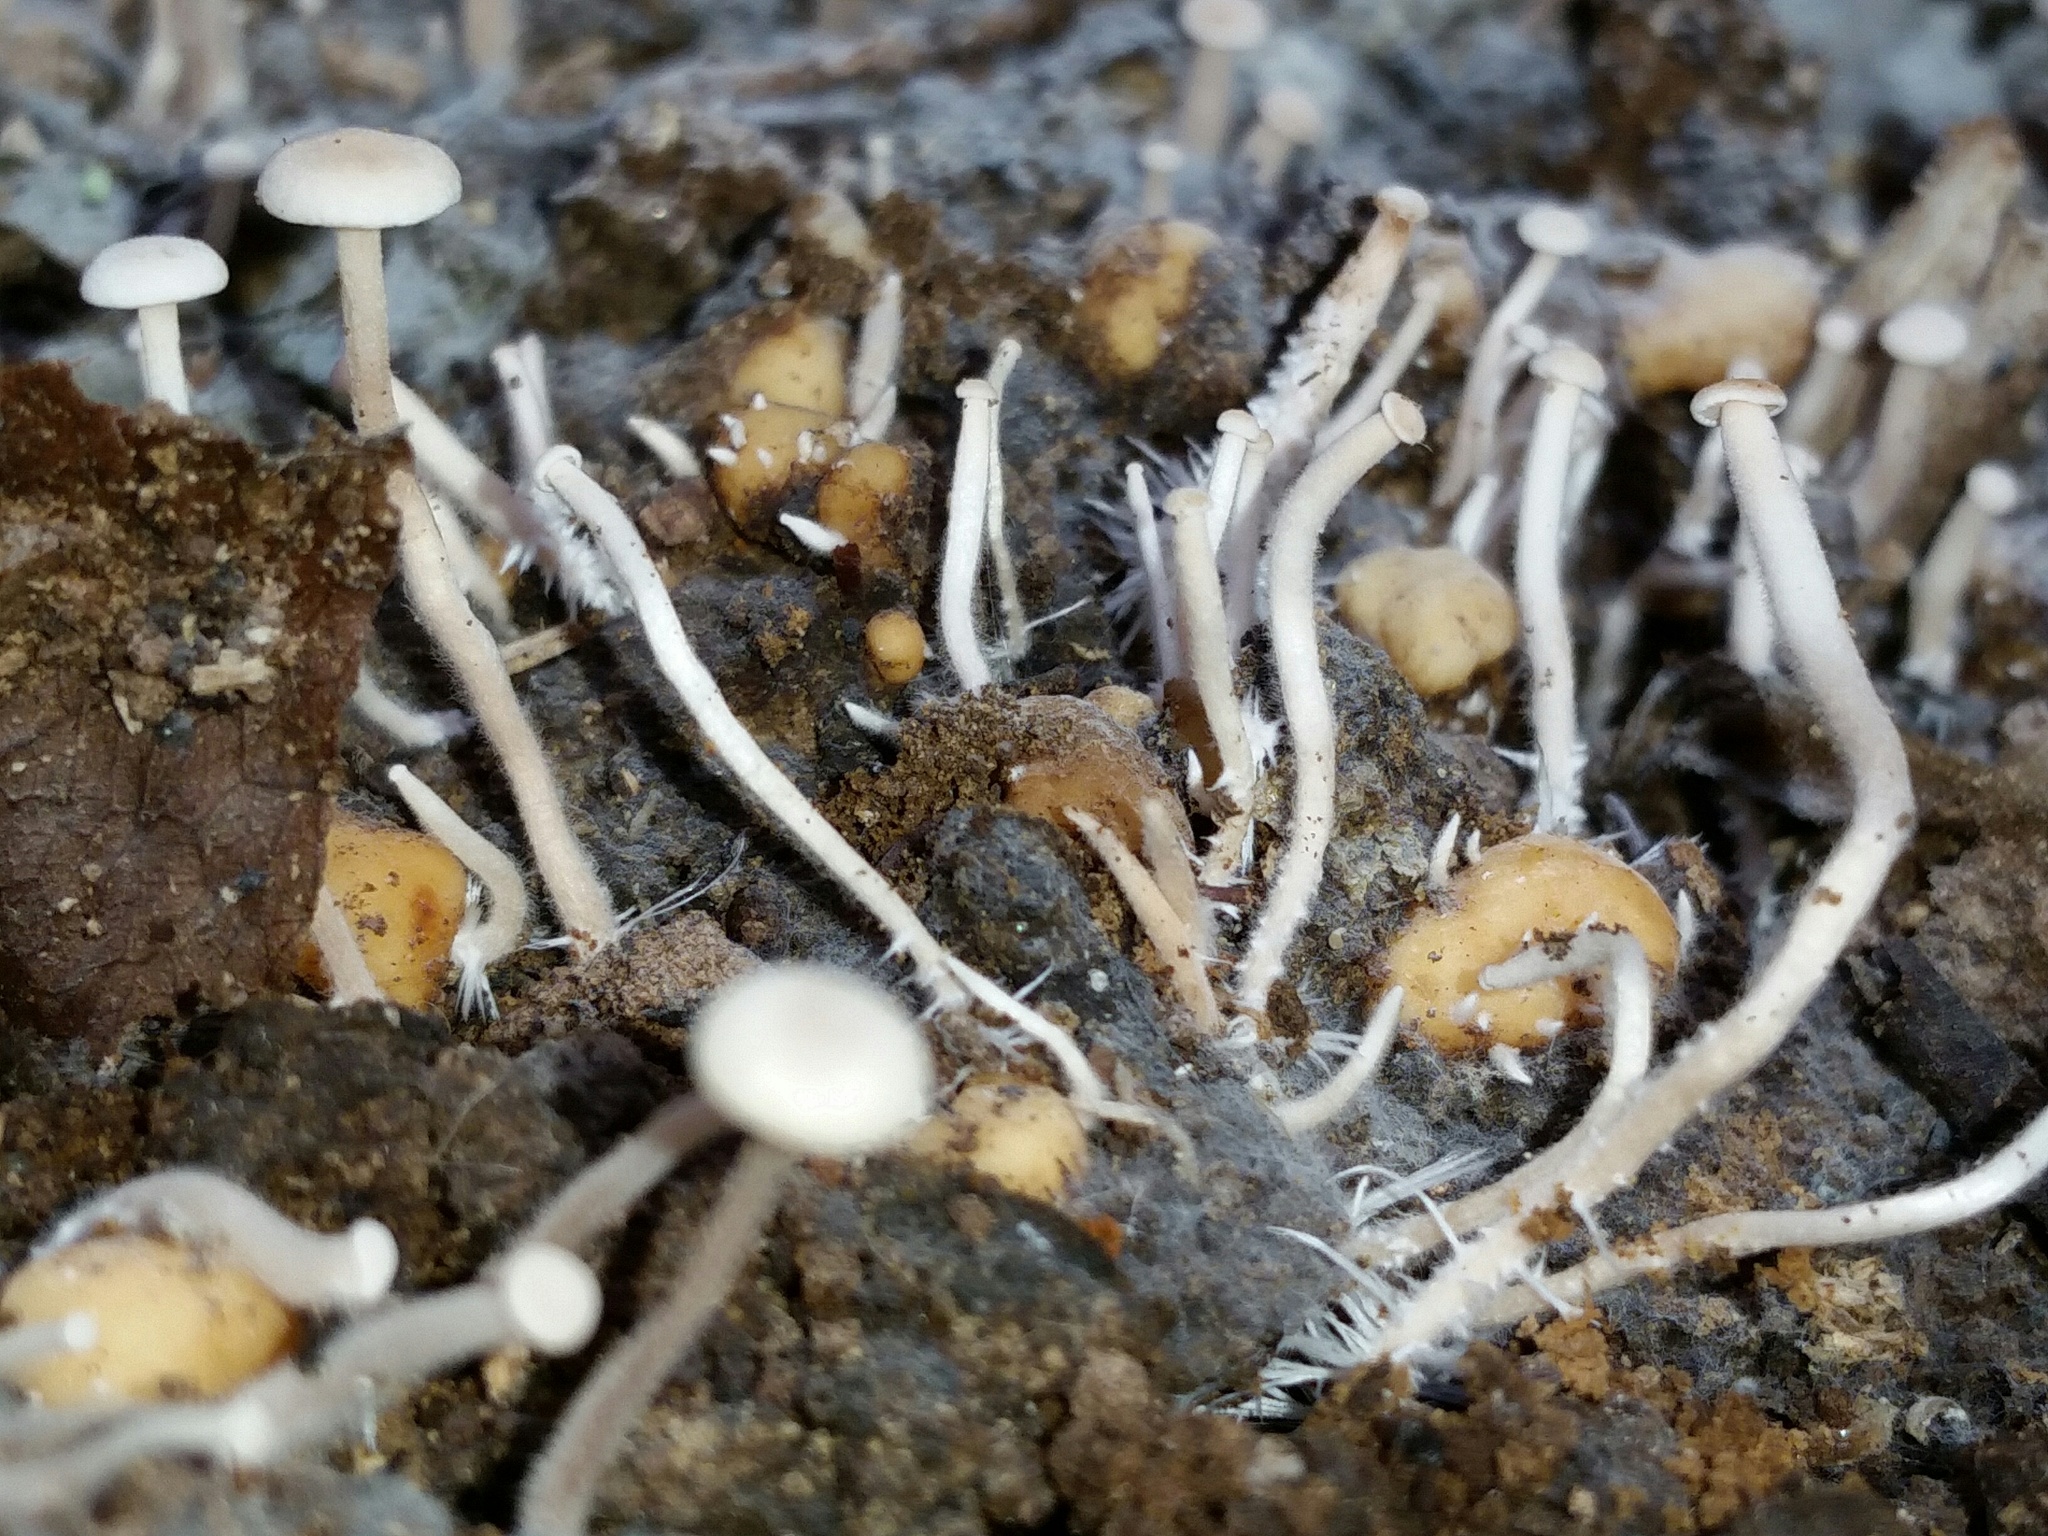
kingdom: Fungi
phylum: Basidiomycota
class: Agaricomycetes
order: Agaricales
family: Tricholomataceae
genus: Collybia
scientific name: Collybia cookei
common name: Splitpea shanklet
